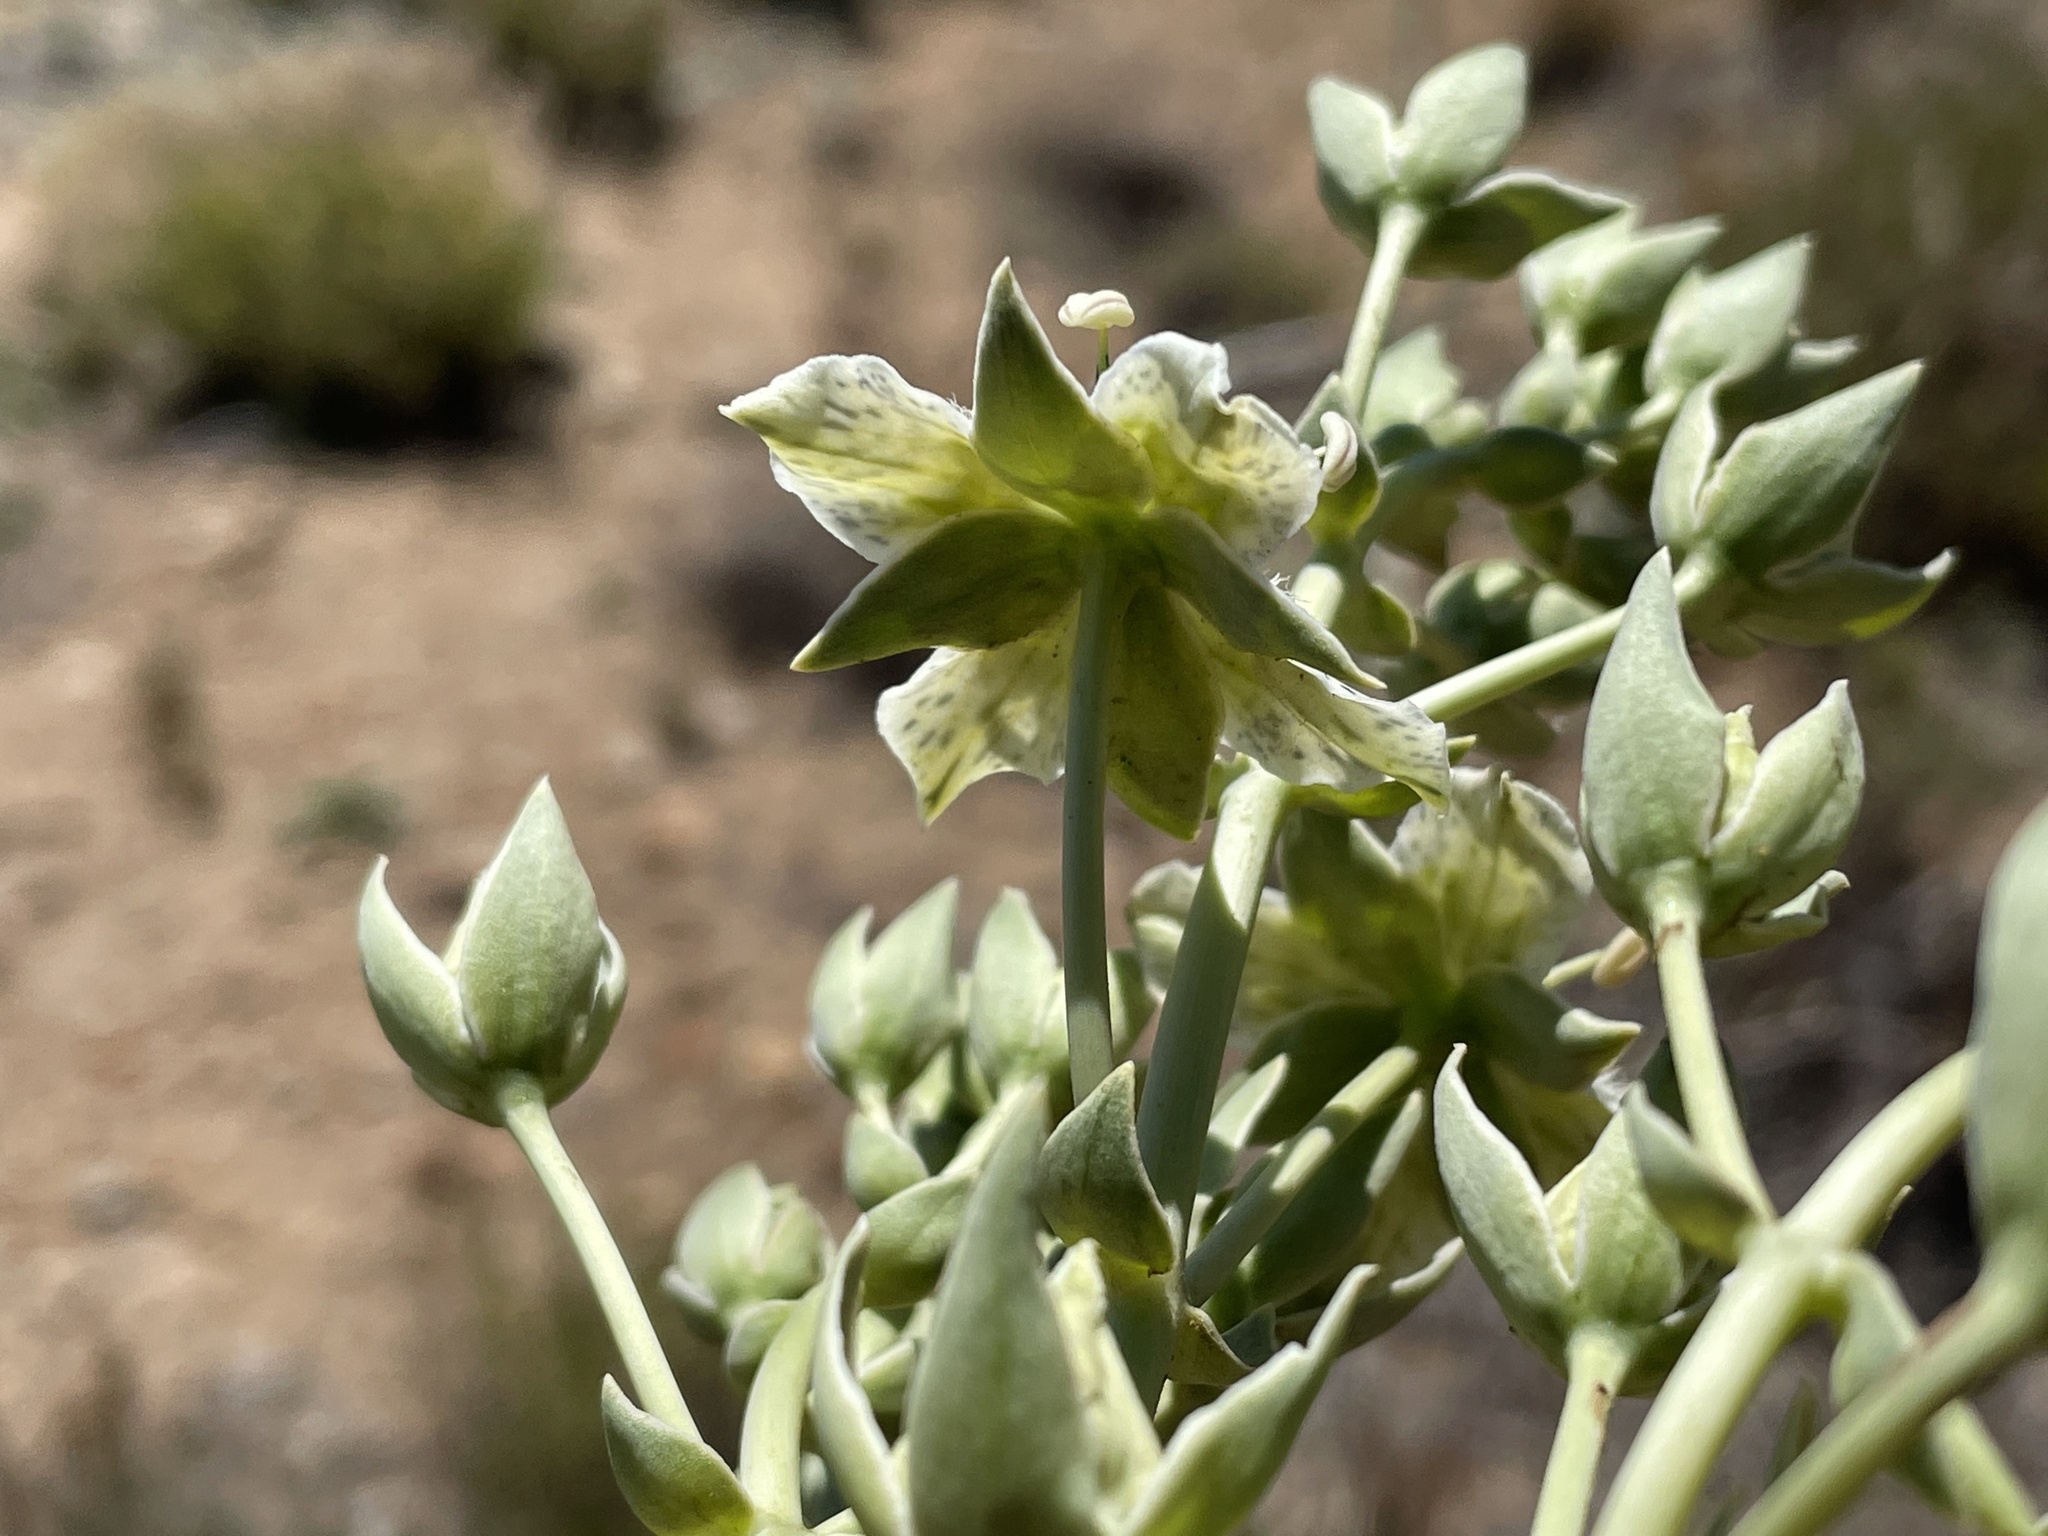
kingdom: Plantae
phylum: Tracheophyta
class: Magnoliopsida
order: Gentianales
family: Gentianaceae
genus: Frasera
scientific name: Frasera parryi
